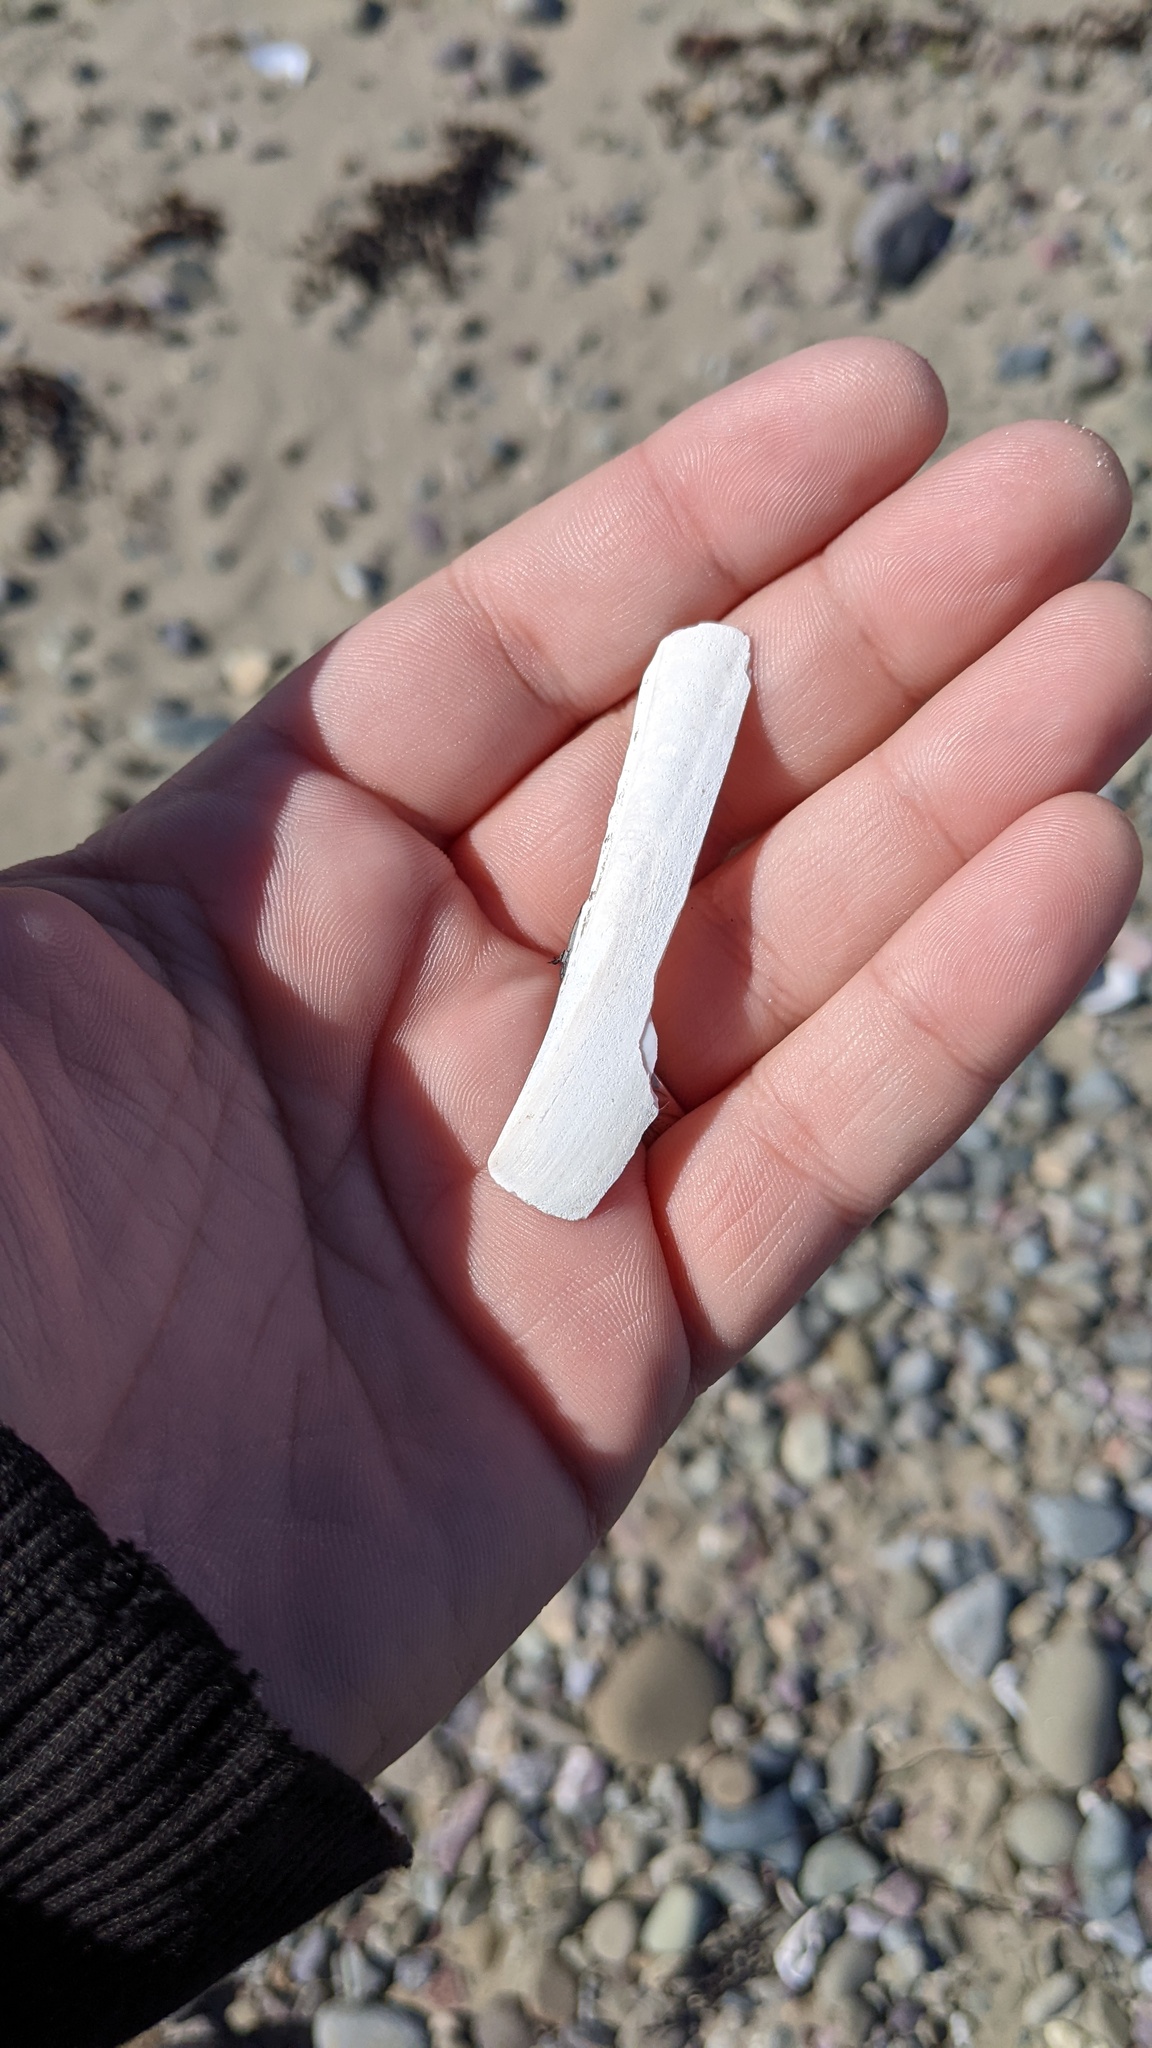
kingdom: Animalia
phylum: Mollusca
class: Bivalvia
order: Adapedonta
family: Pharidae
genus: Ensis
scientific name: Ensis leei
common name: American jack knife clam
